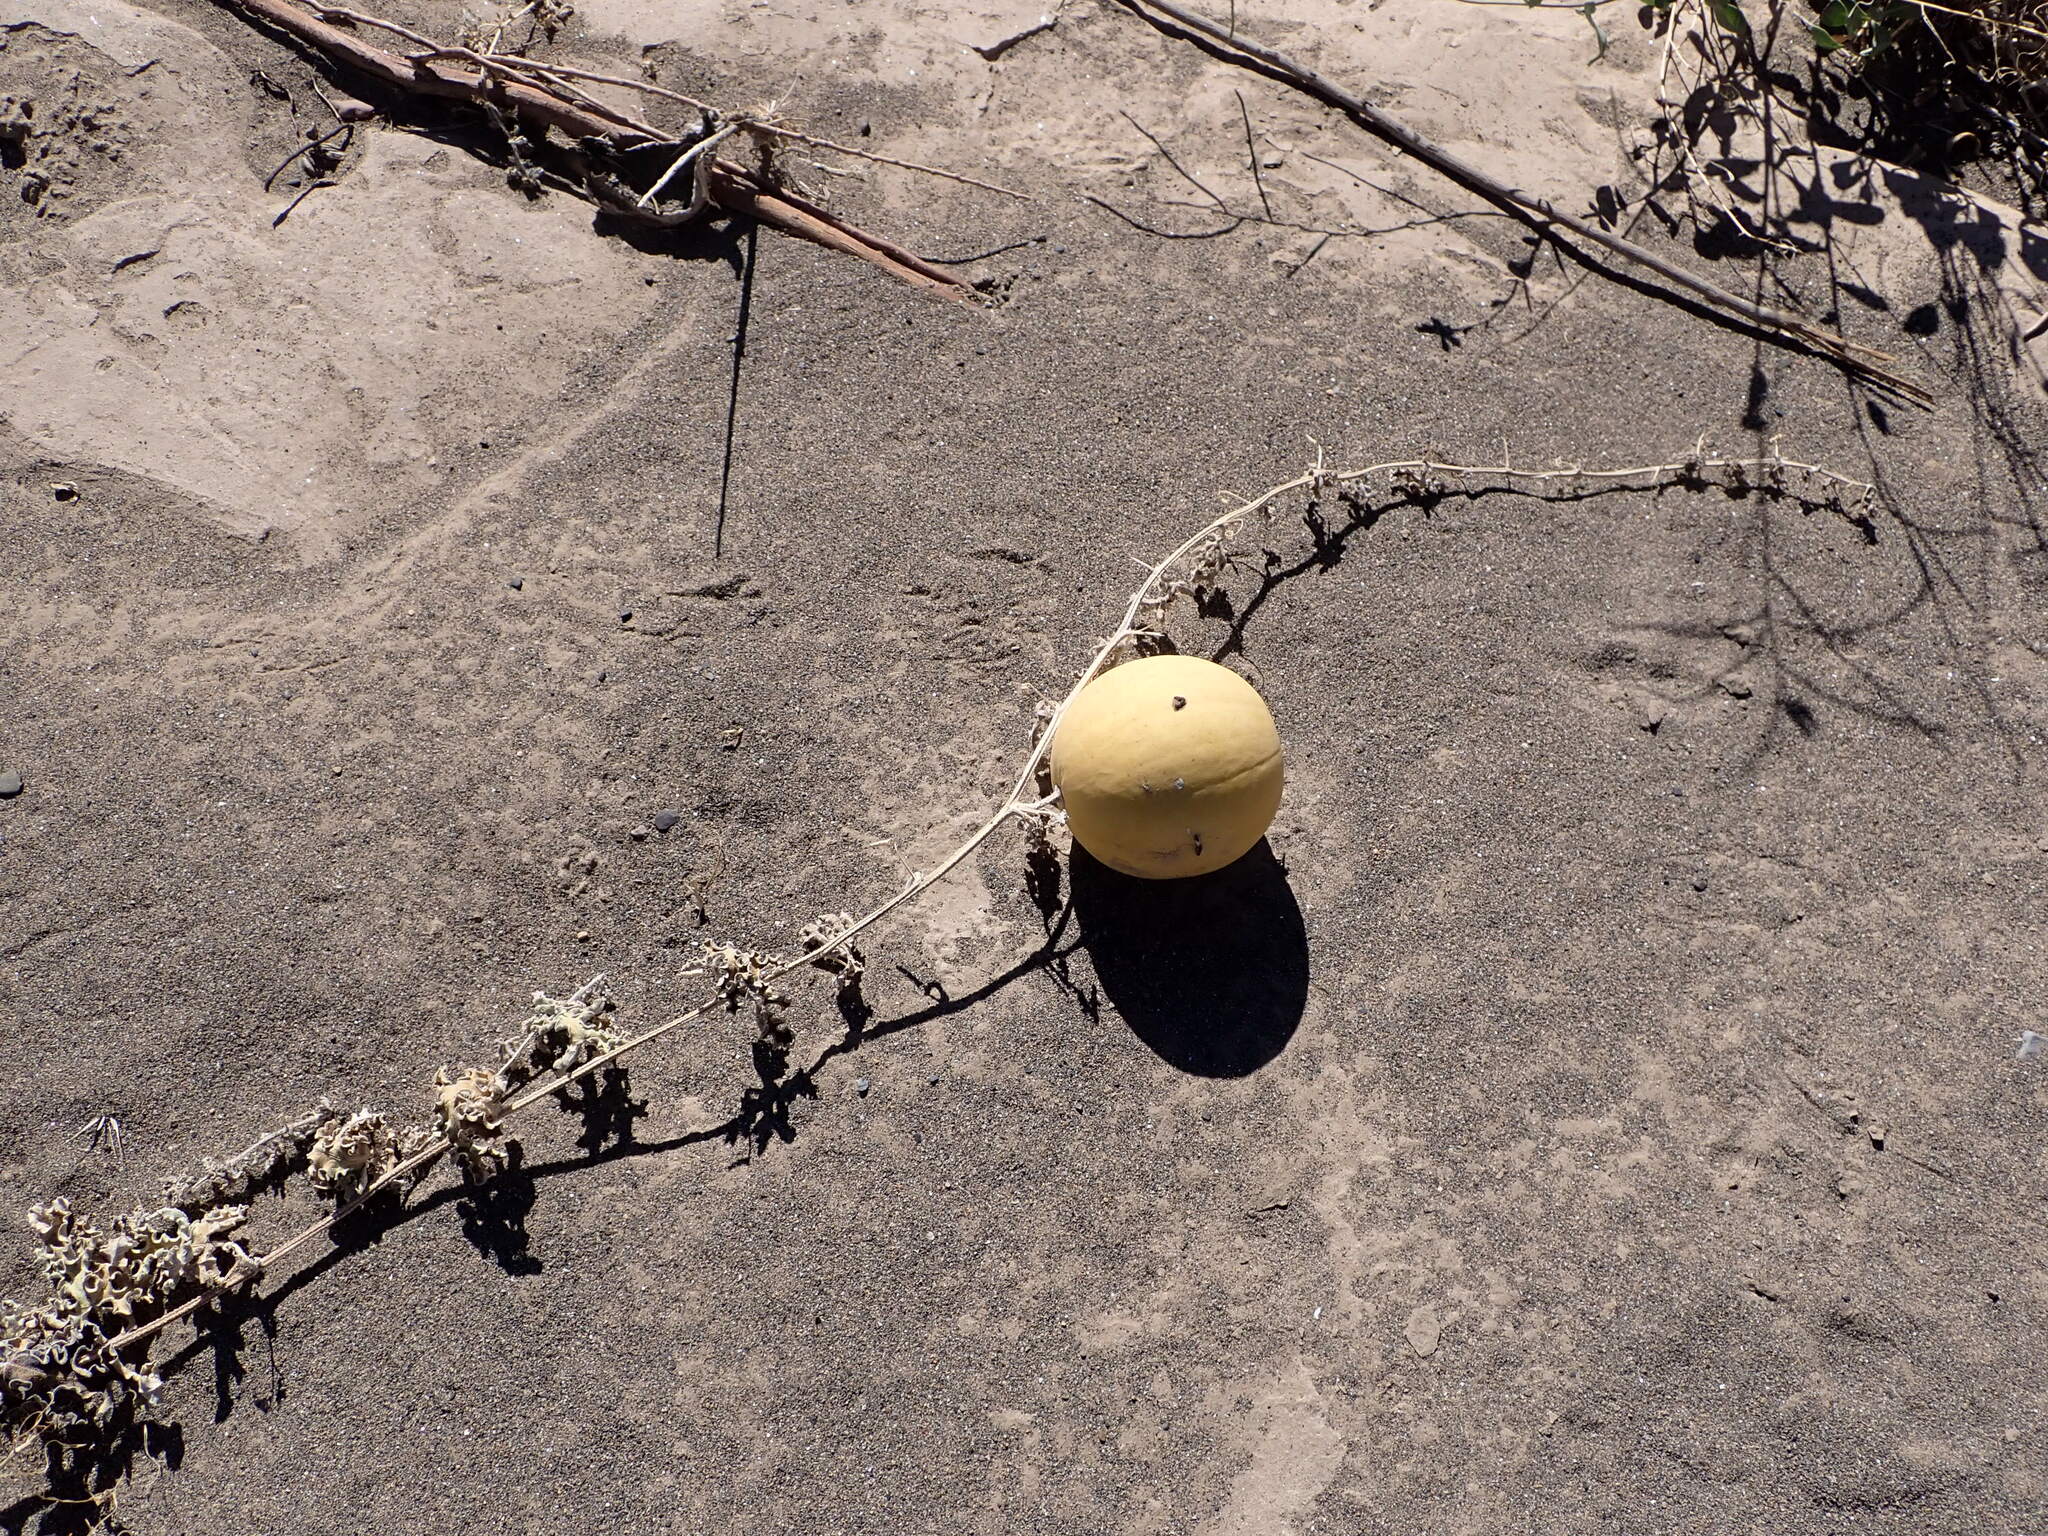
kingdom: Plantae
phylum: Tracheophyta
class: Magnoliopsida
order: Cucurbitales
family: Cucurbitaceae
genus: Citrullus
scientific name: Citrullus colocynthis
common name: Colocynth
